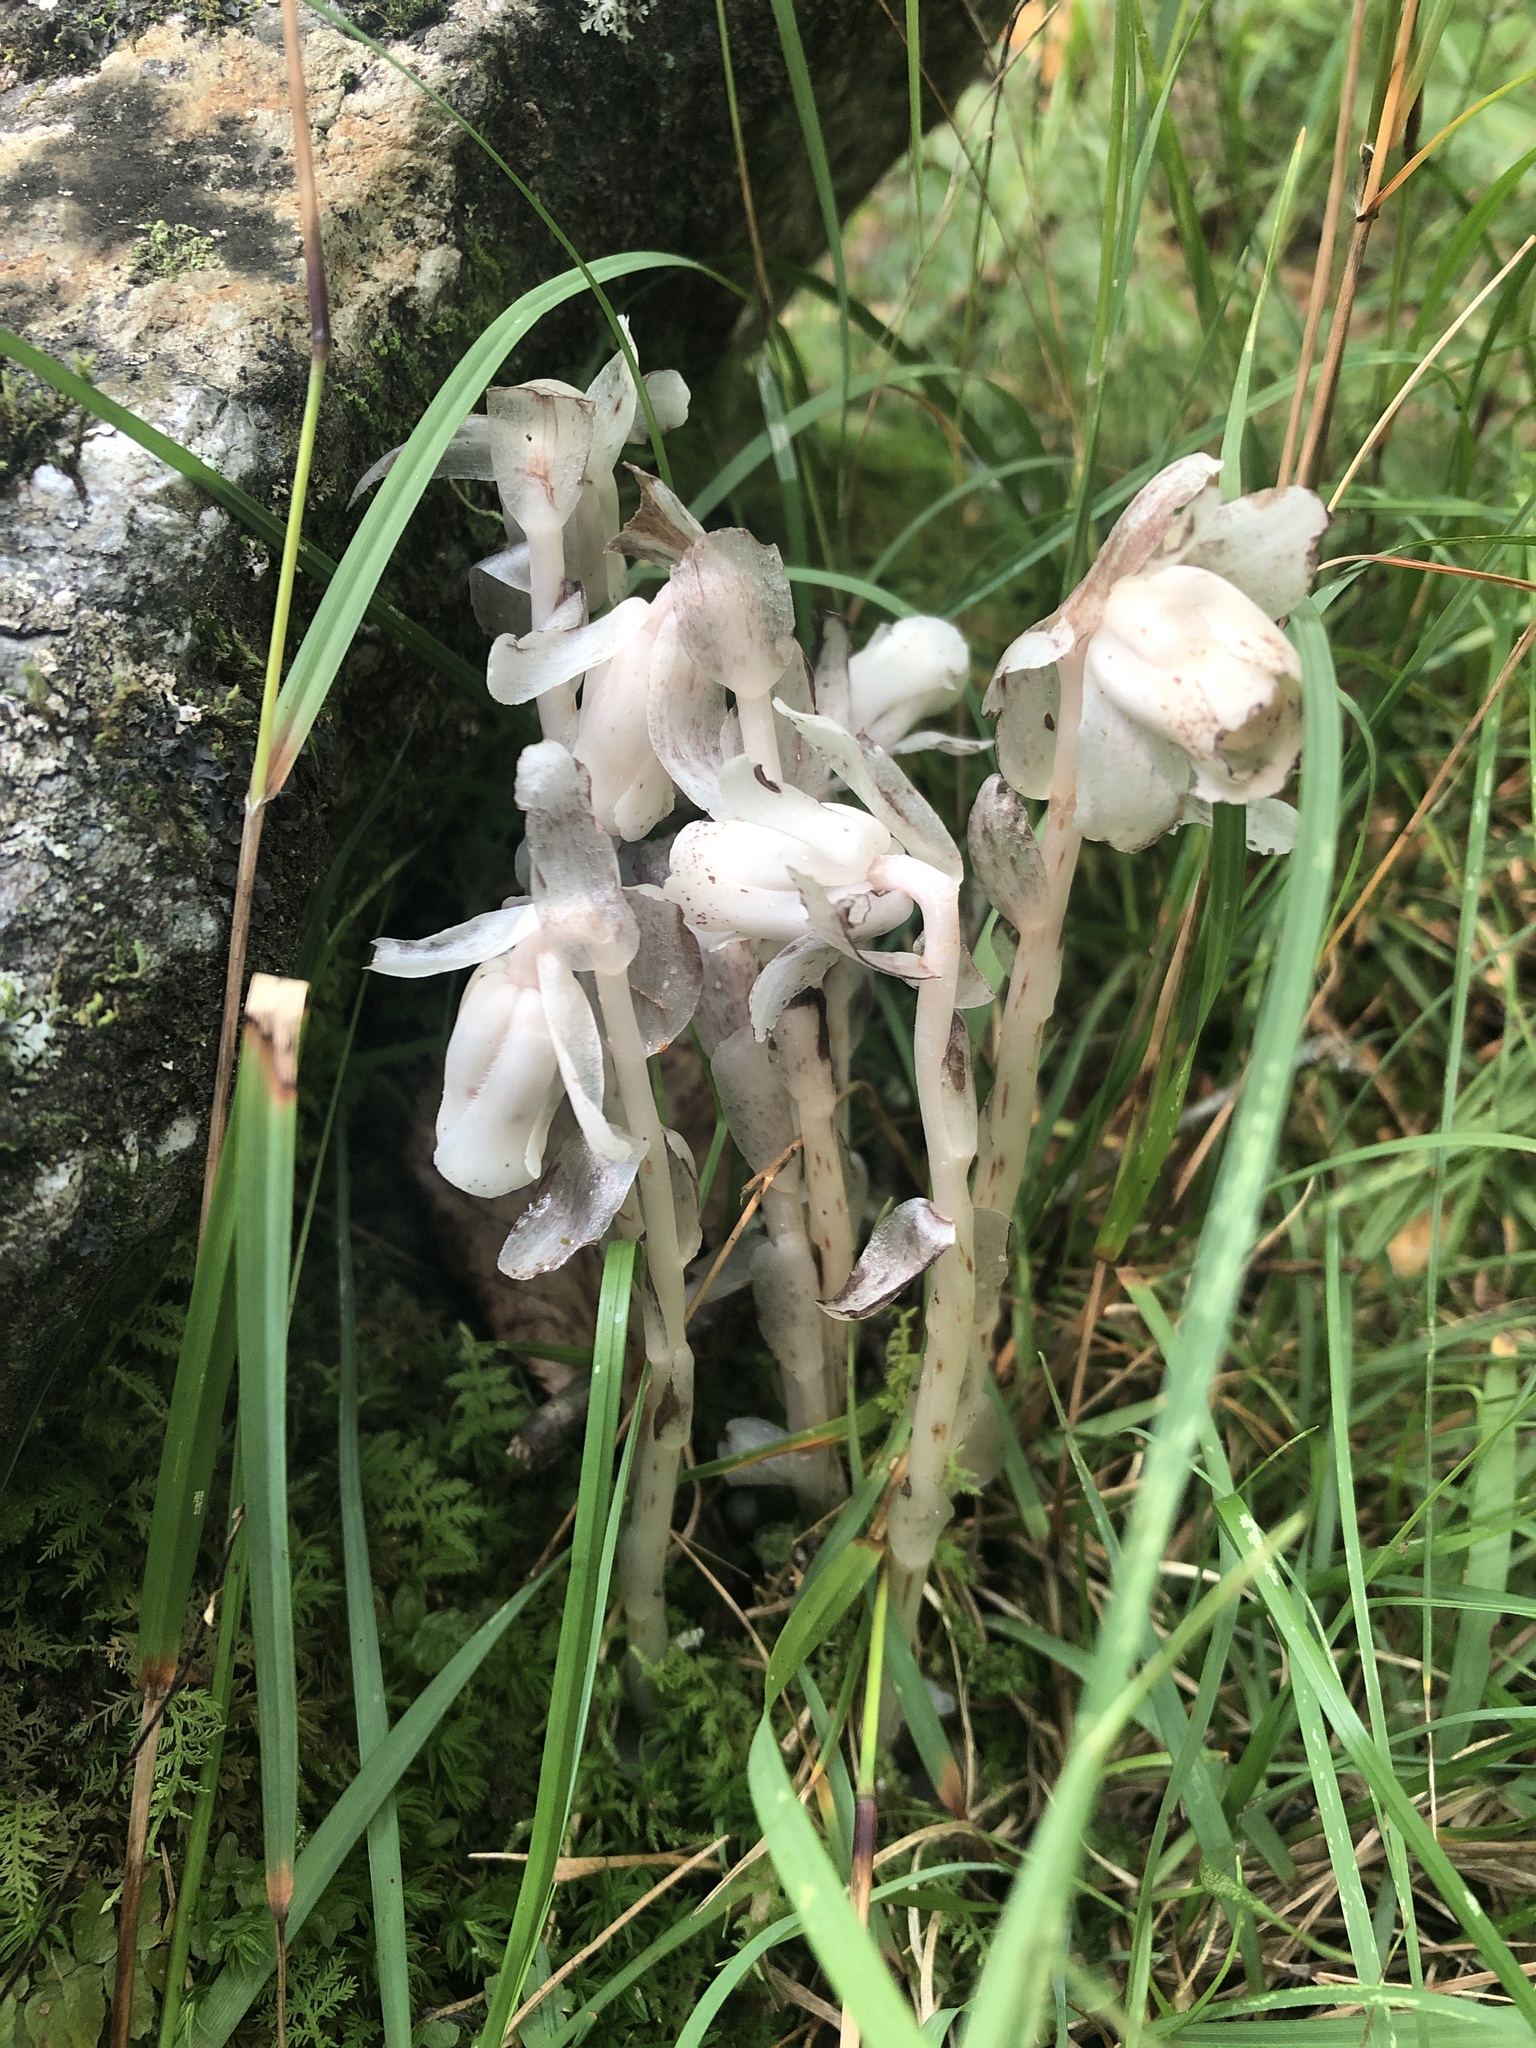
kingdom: Plantae
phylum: Tracheophyta
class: Magnoliopsida
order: Ericales
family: Ericaceae
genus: Monotropa
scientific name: Monotropa uniflora
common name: Convulsion root
